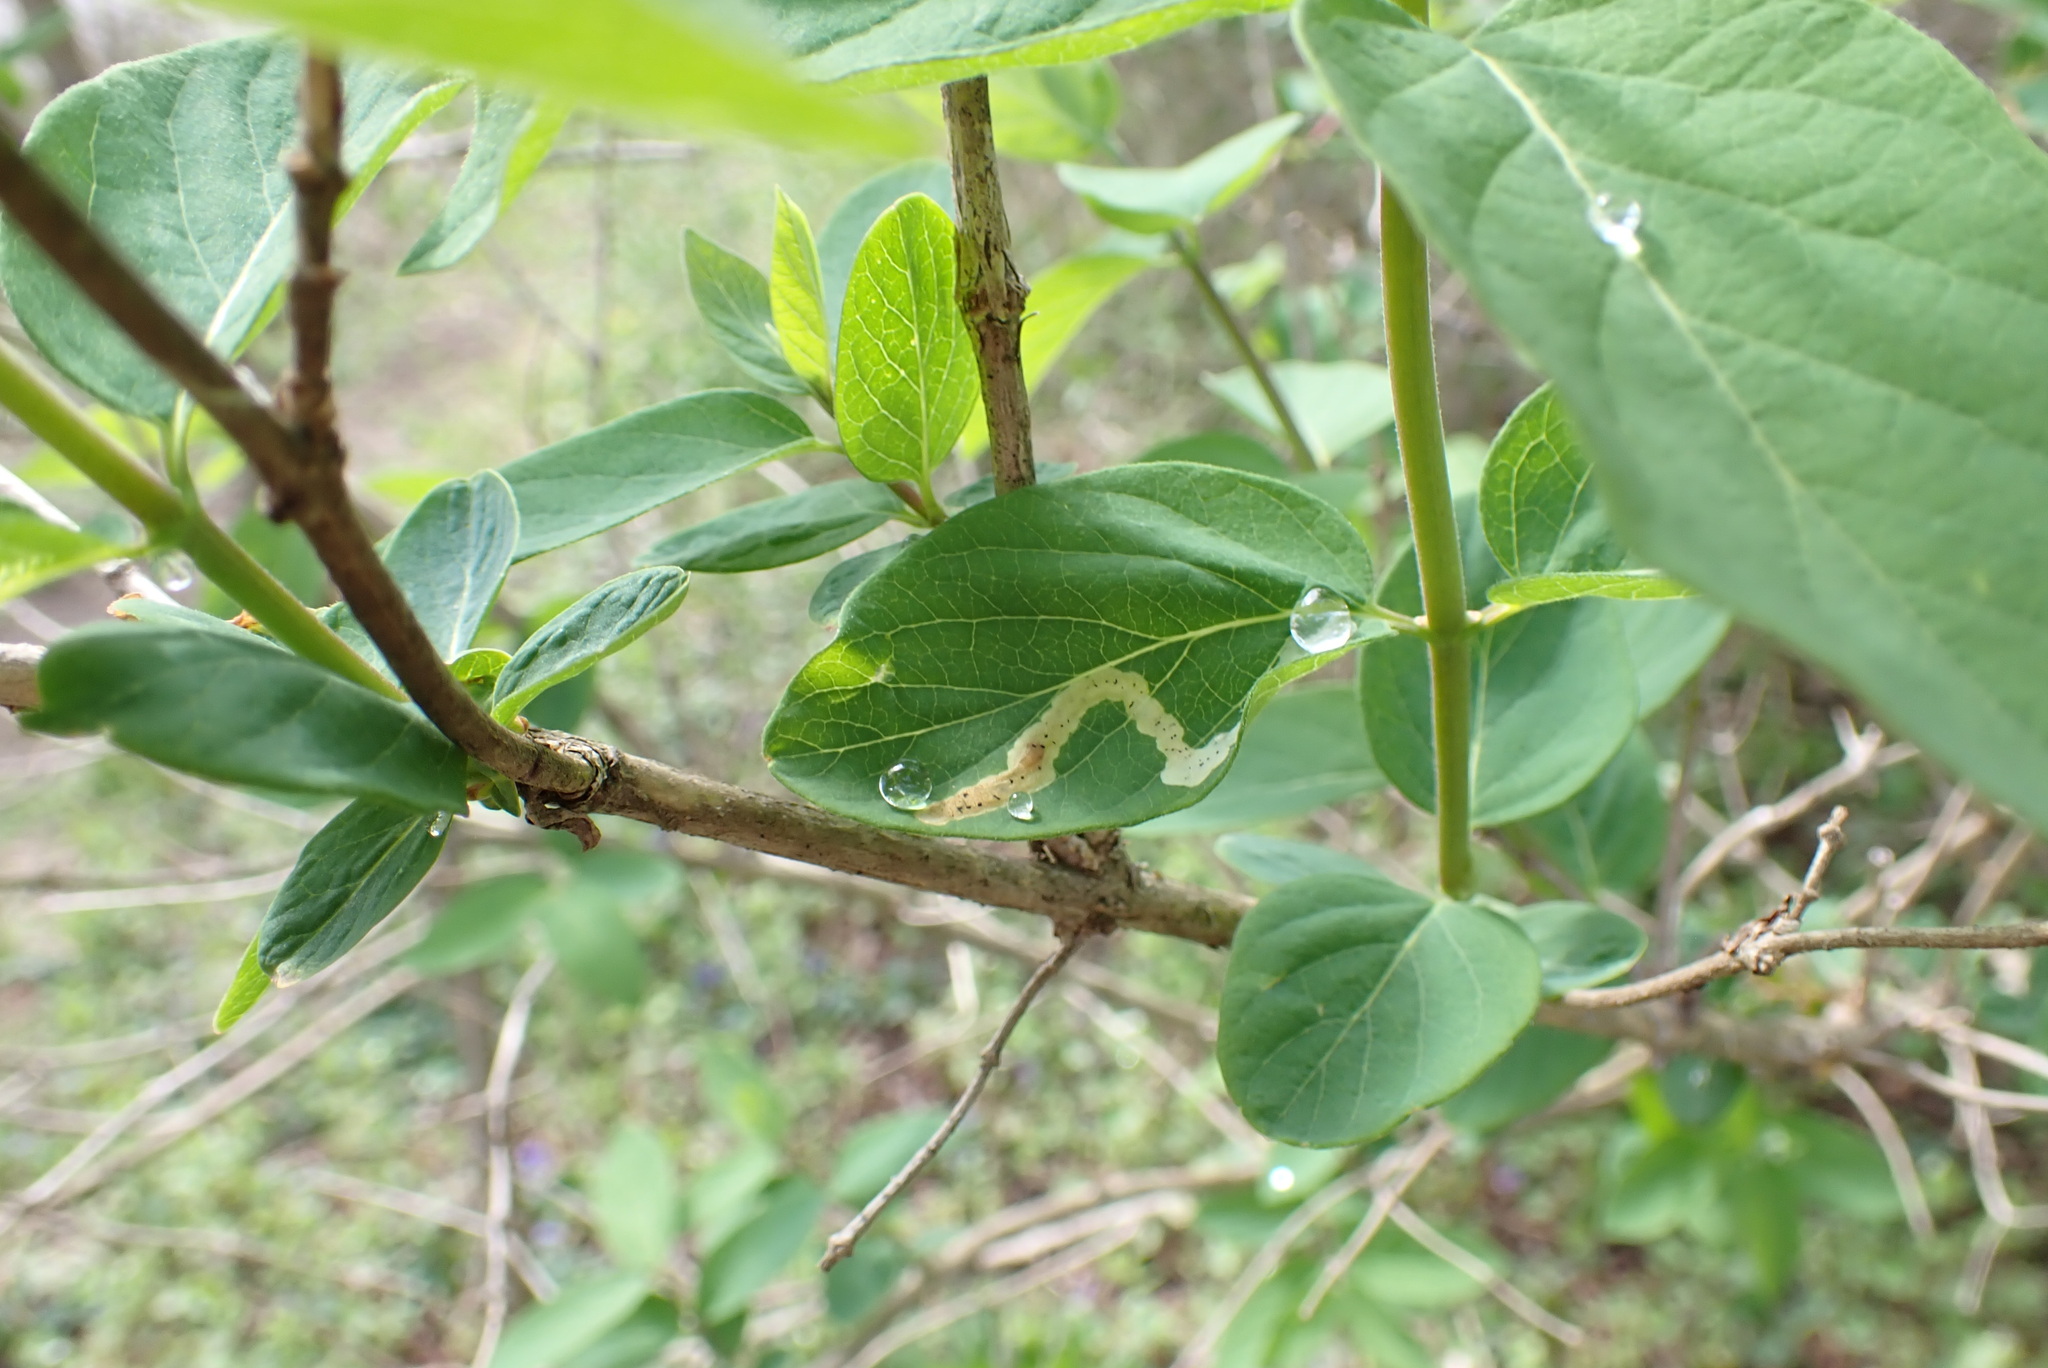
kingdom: Animalia
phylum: Arthropoda
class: Insecta
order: Diptera
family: Agromyzidae
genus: Aulagromyza
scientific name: Aulagromyza cornigera
